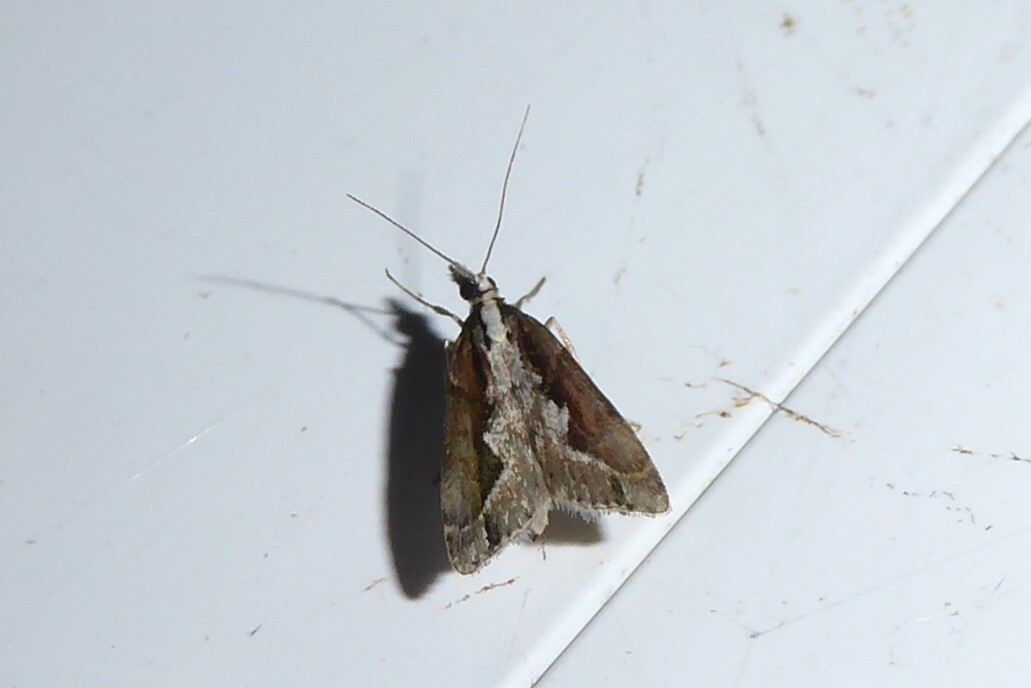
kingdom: Animalia
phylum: Arthropoda
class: Insecta
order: Lepidoptera
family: Crambidae
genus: Eudonia
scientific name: Eudonia steropaea
